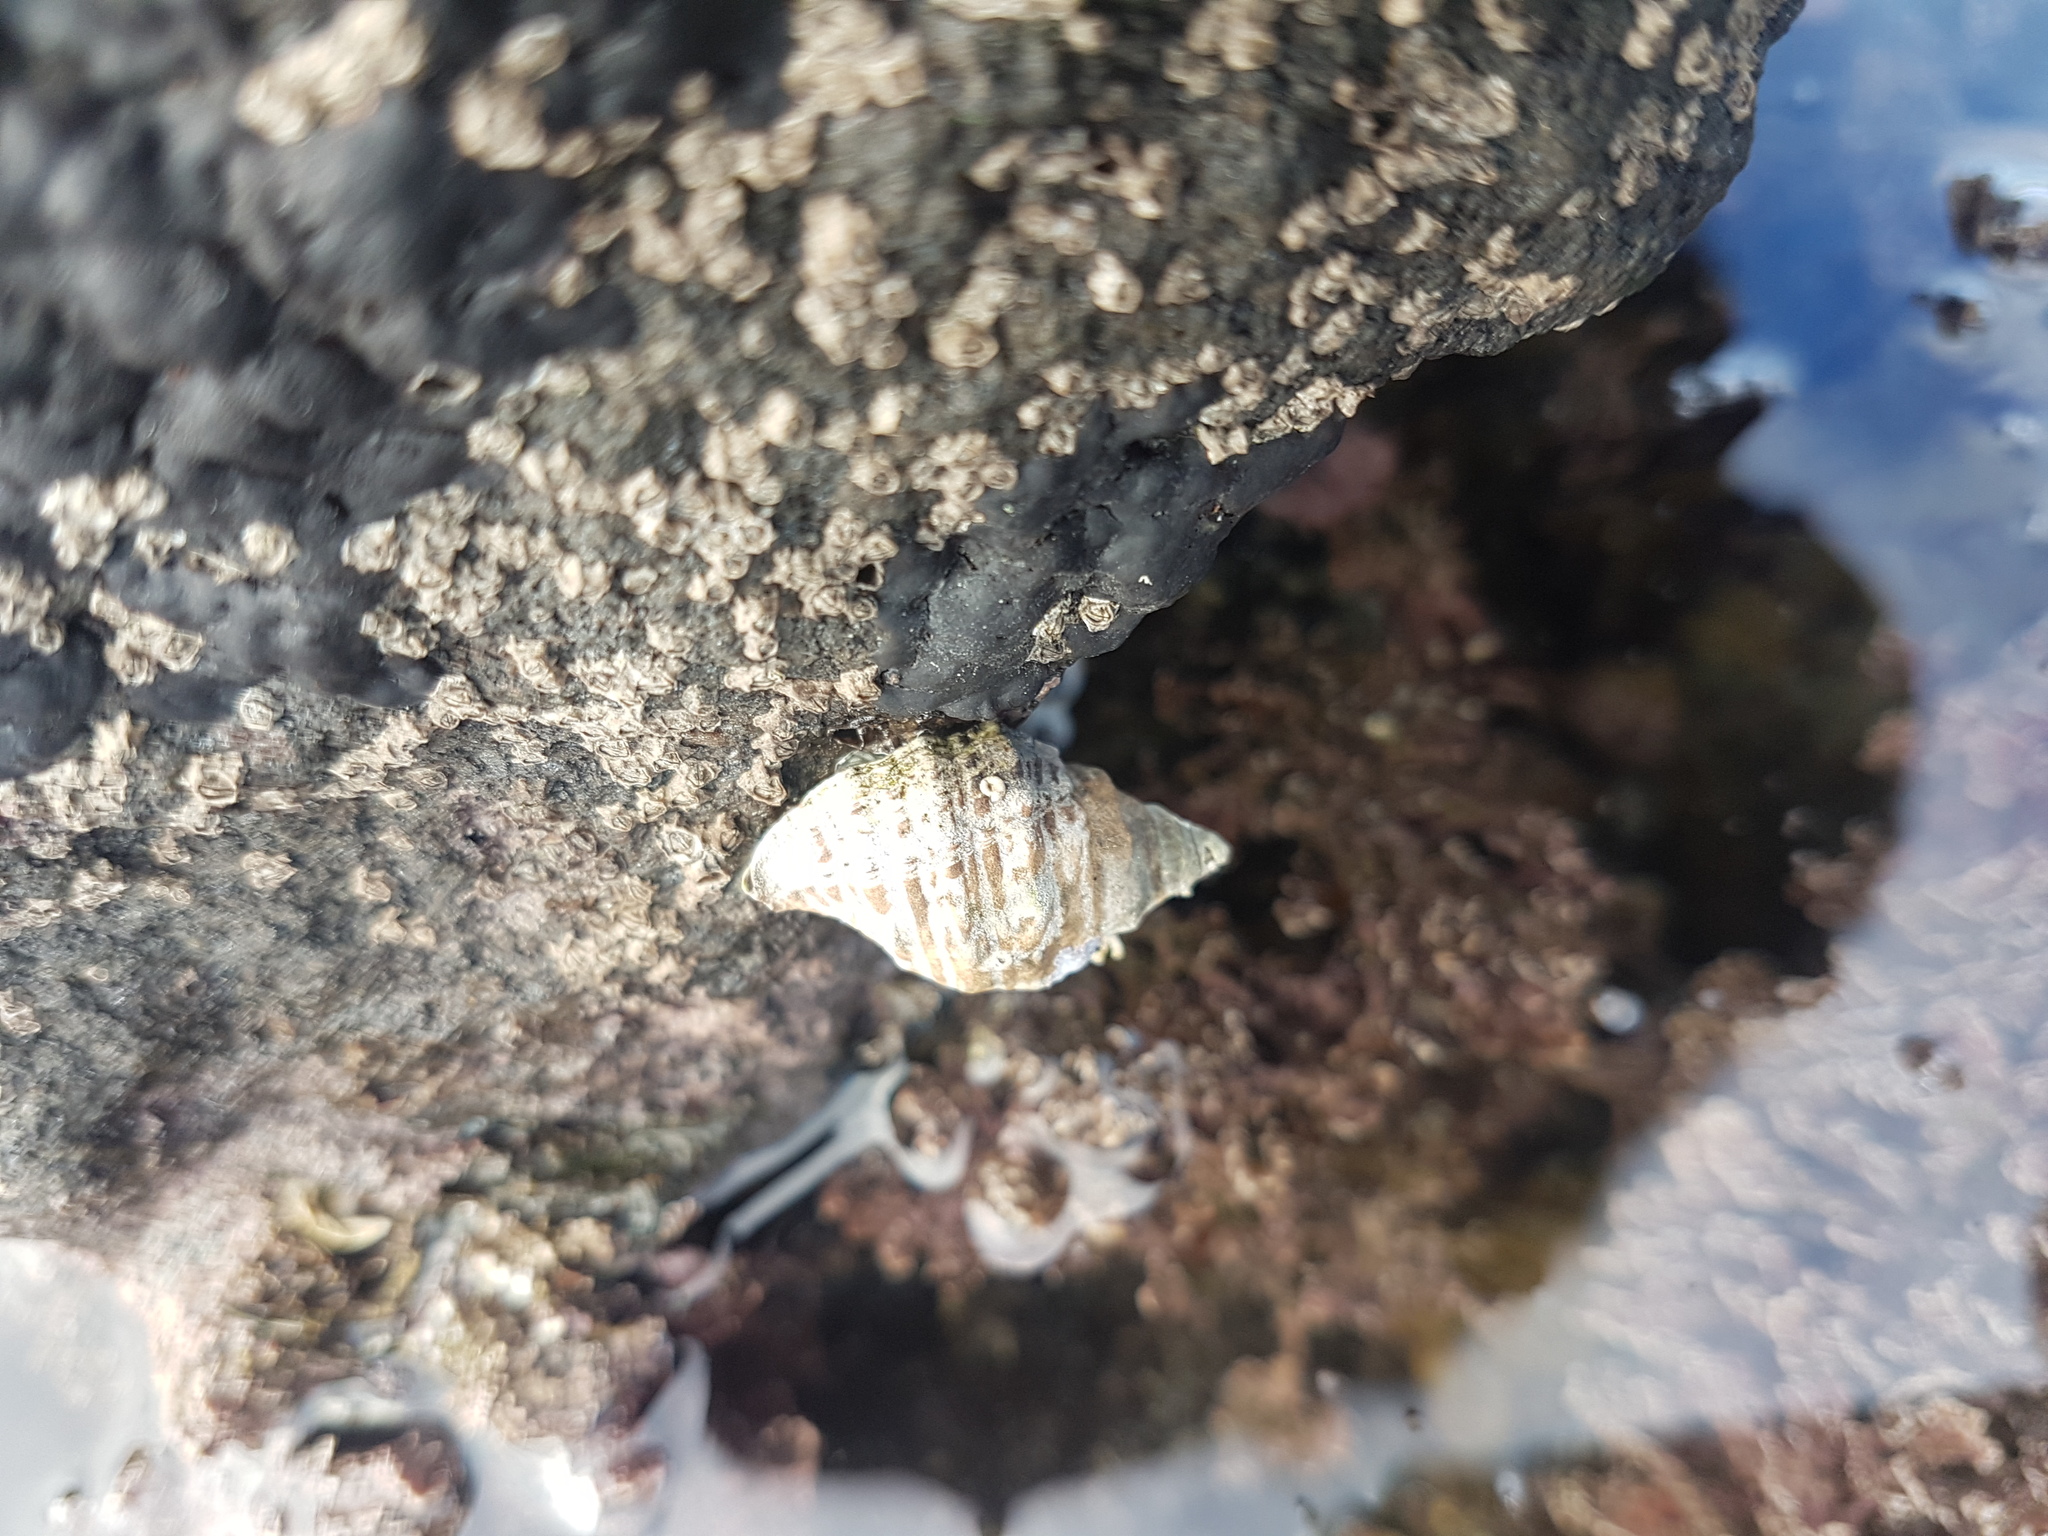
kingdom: Animalia
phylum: Mollusca
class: Gastropoda
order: Neogastropoda
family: Muricidae
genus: Haustrum
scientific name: Haustrum scobina
